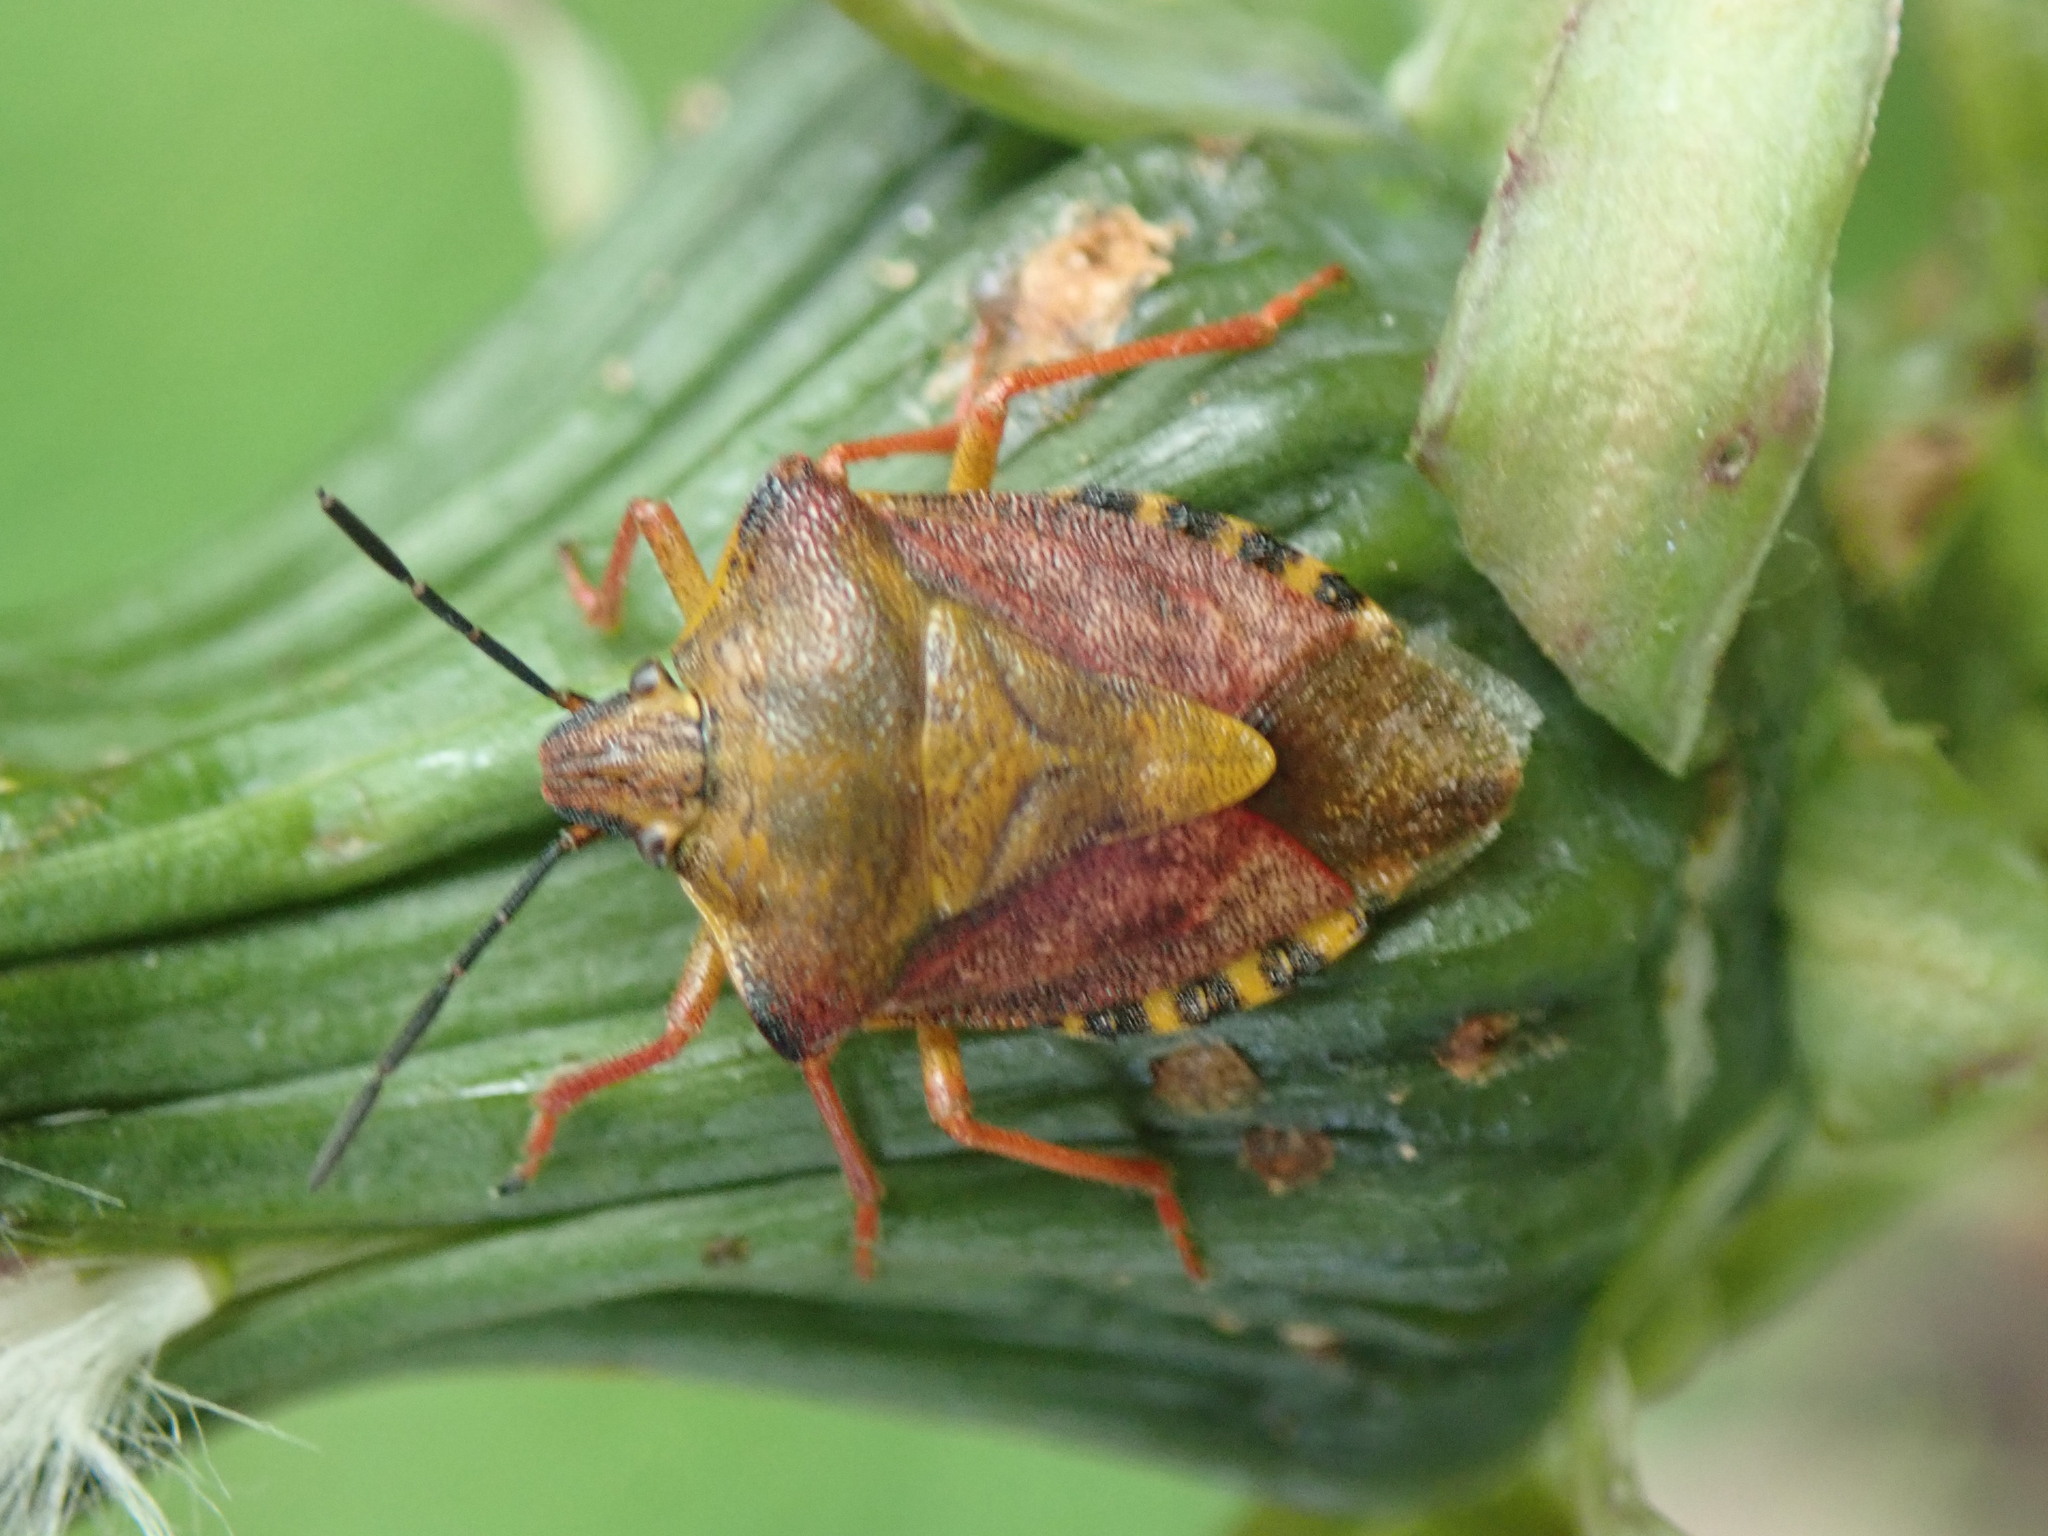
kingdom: Animalia
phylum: Arthropoda
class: Insecta
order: Hemiptera
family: Pentatomidae
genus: Carpocoris
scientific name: Carpocoris purpureipennis
